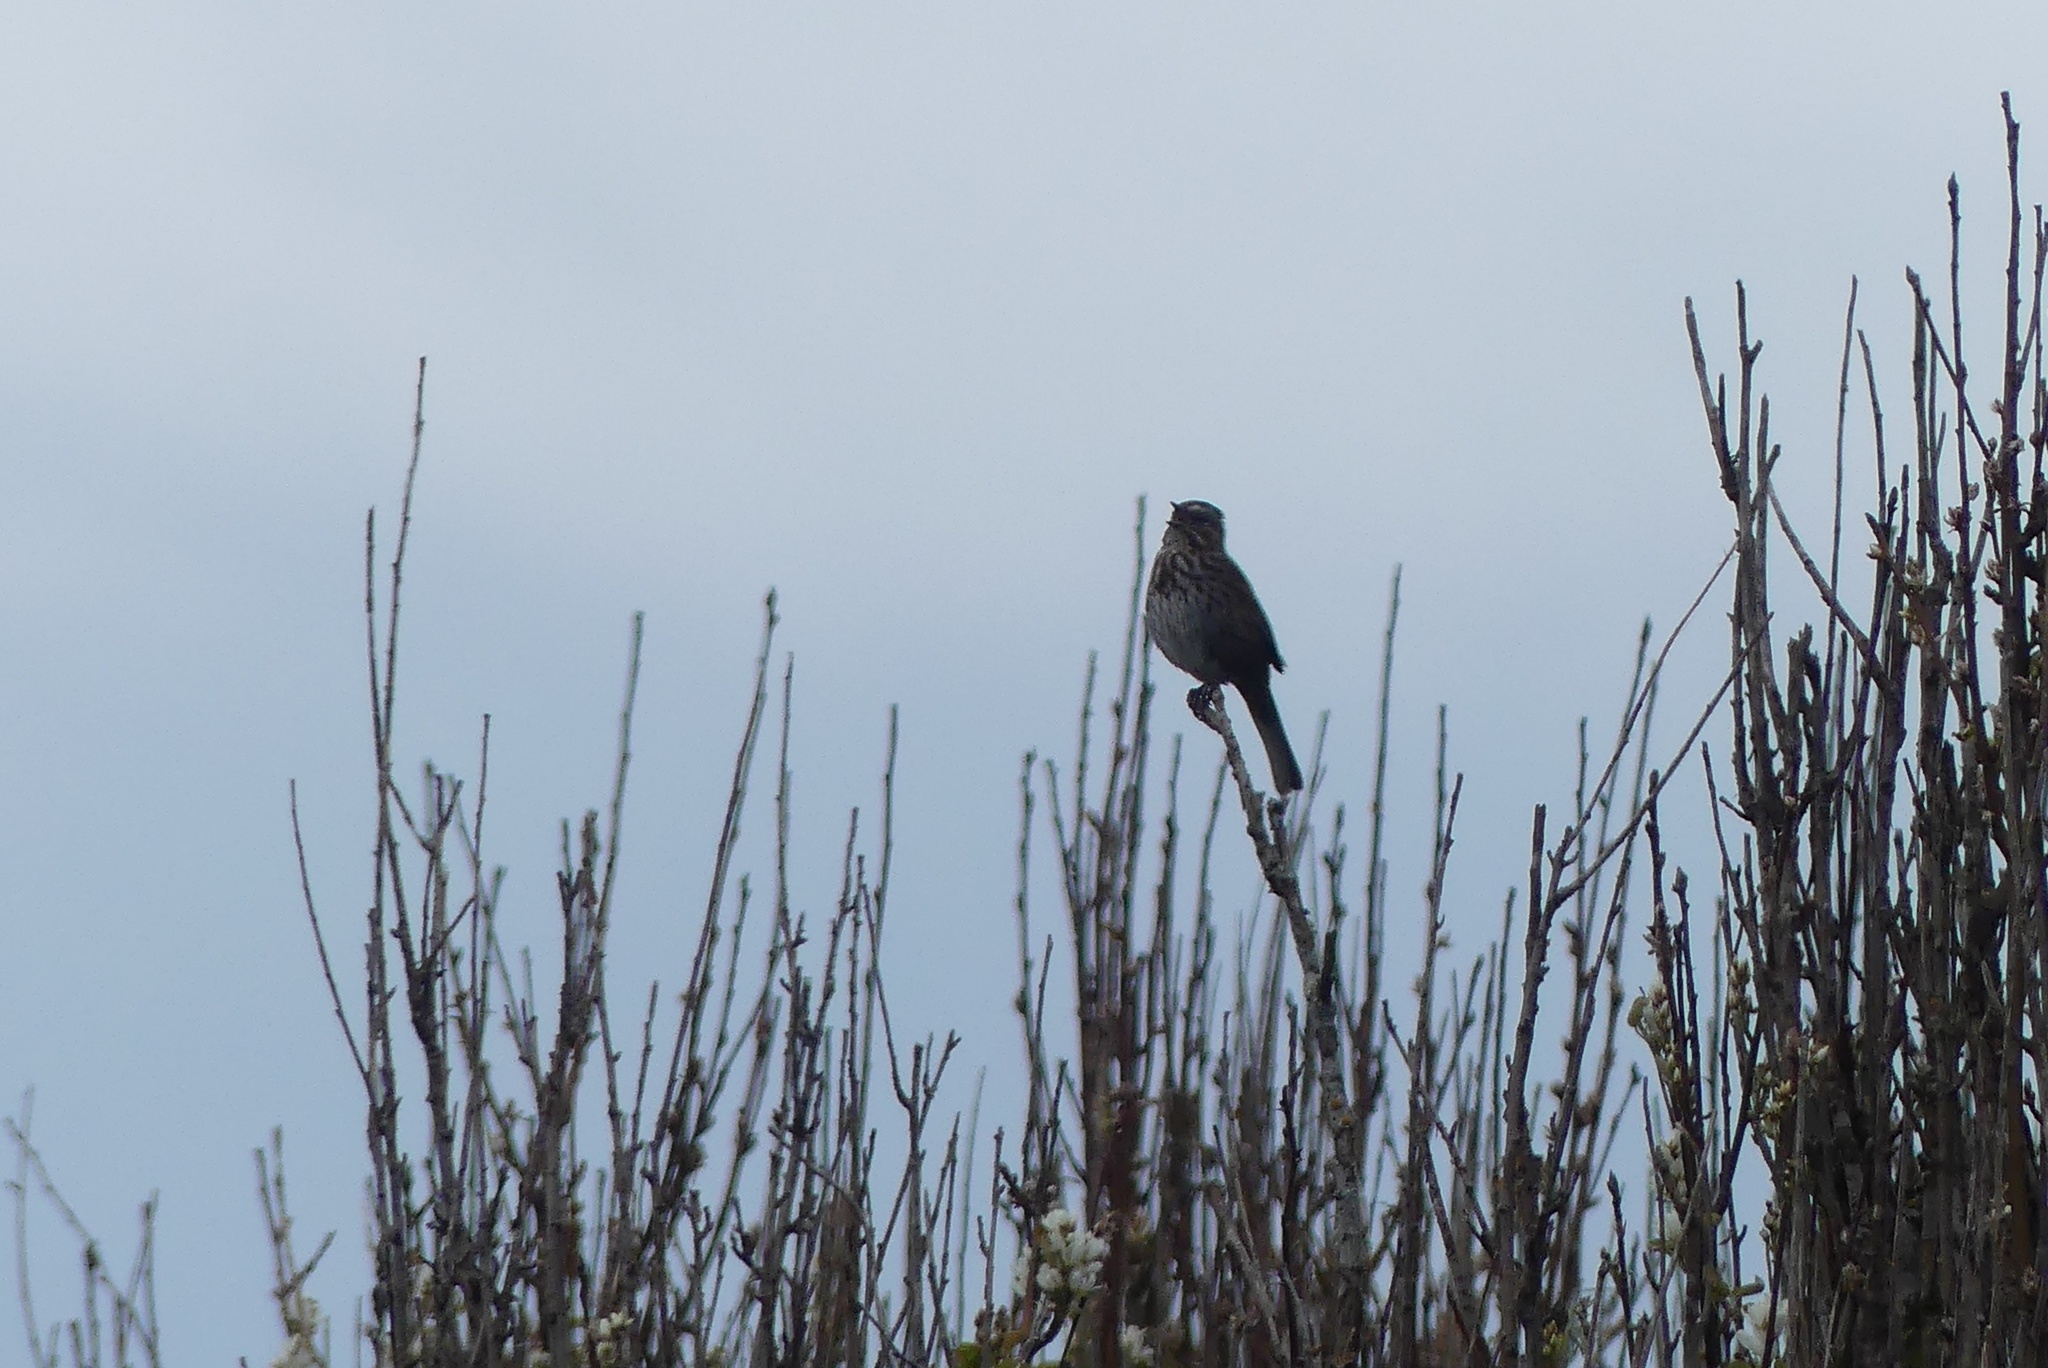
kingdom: Animalia
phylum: Chordata
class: Aves
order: Passeriformes
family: Passerellidae
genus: Melospiza
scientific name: Melospiza melodia
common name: Song sparrow
